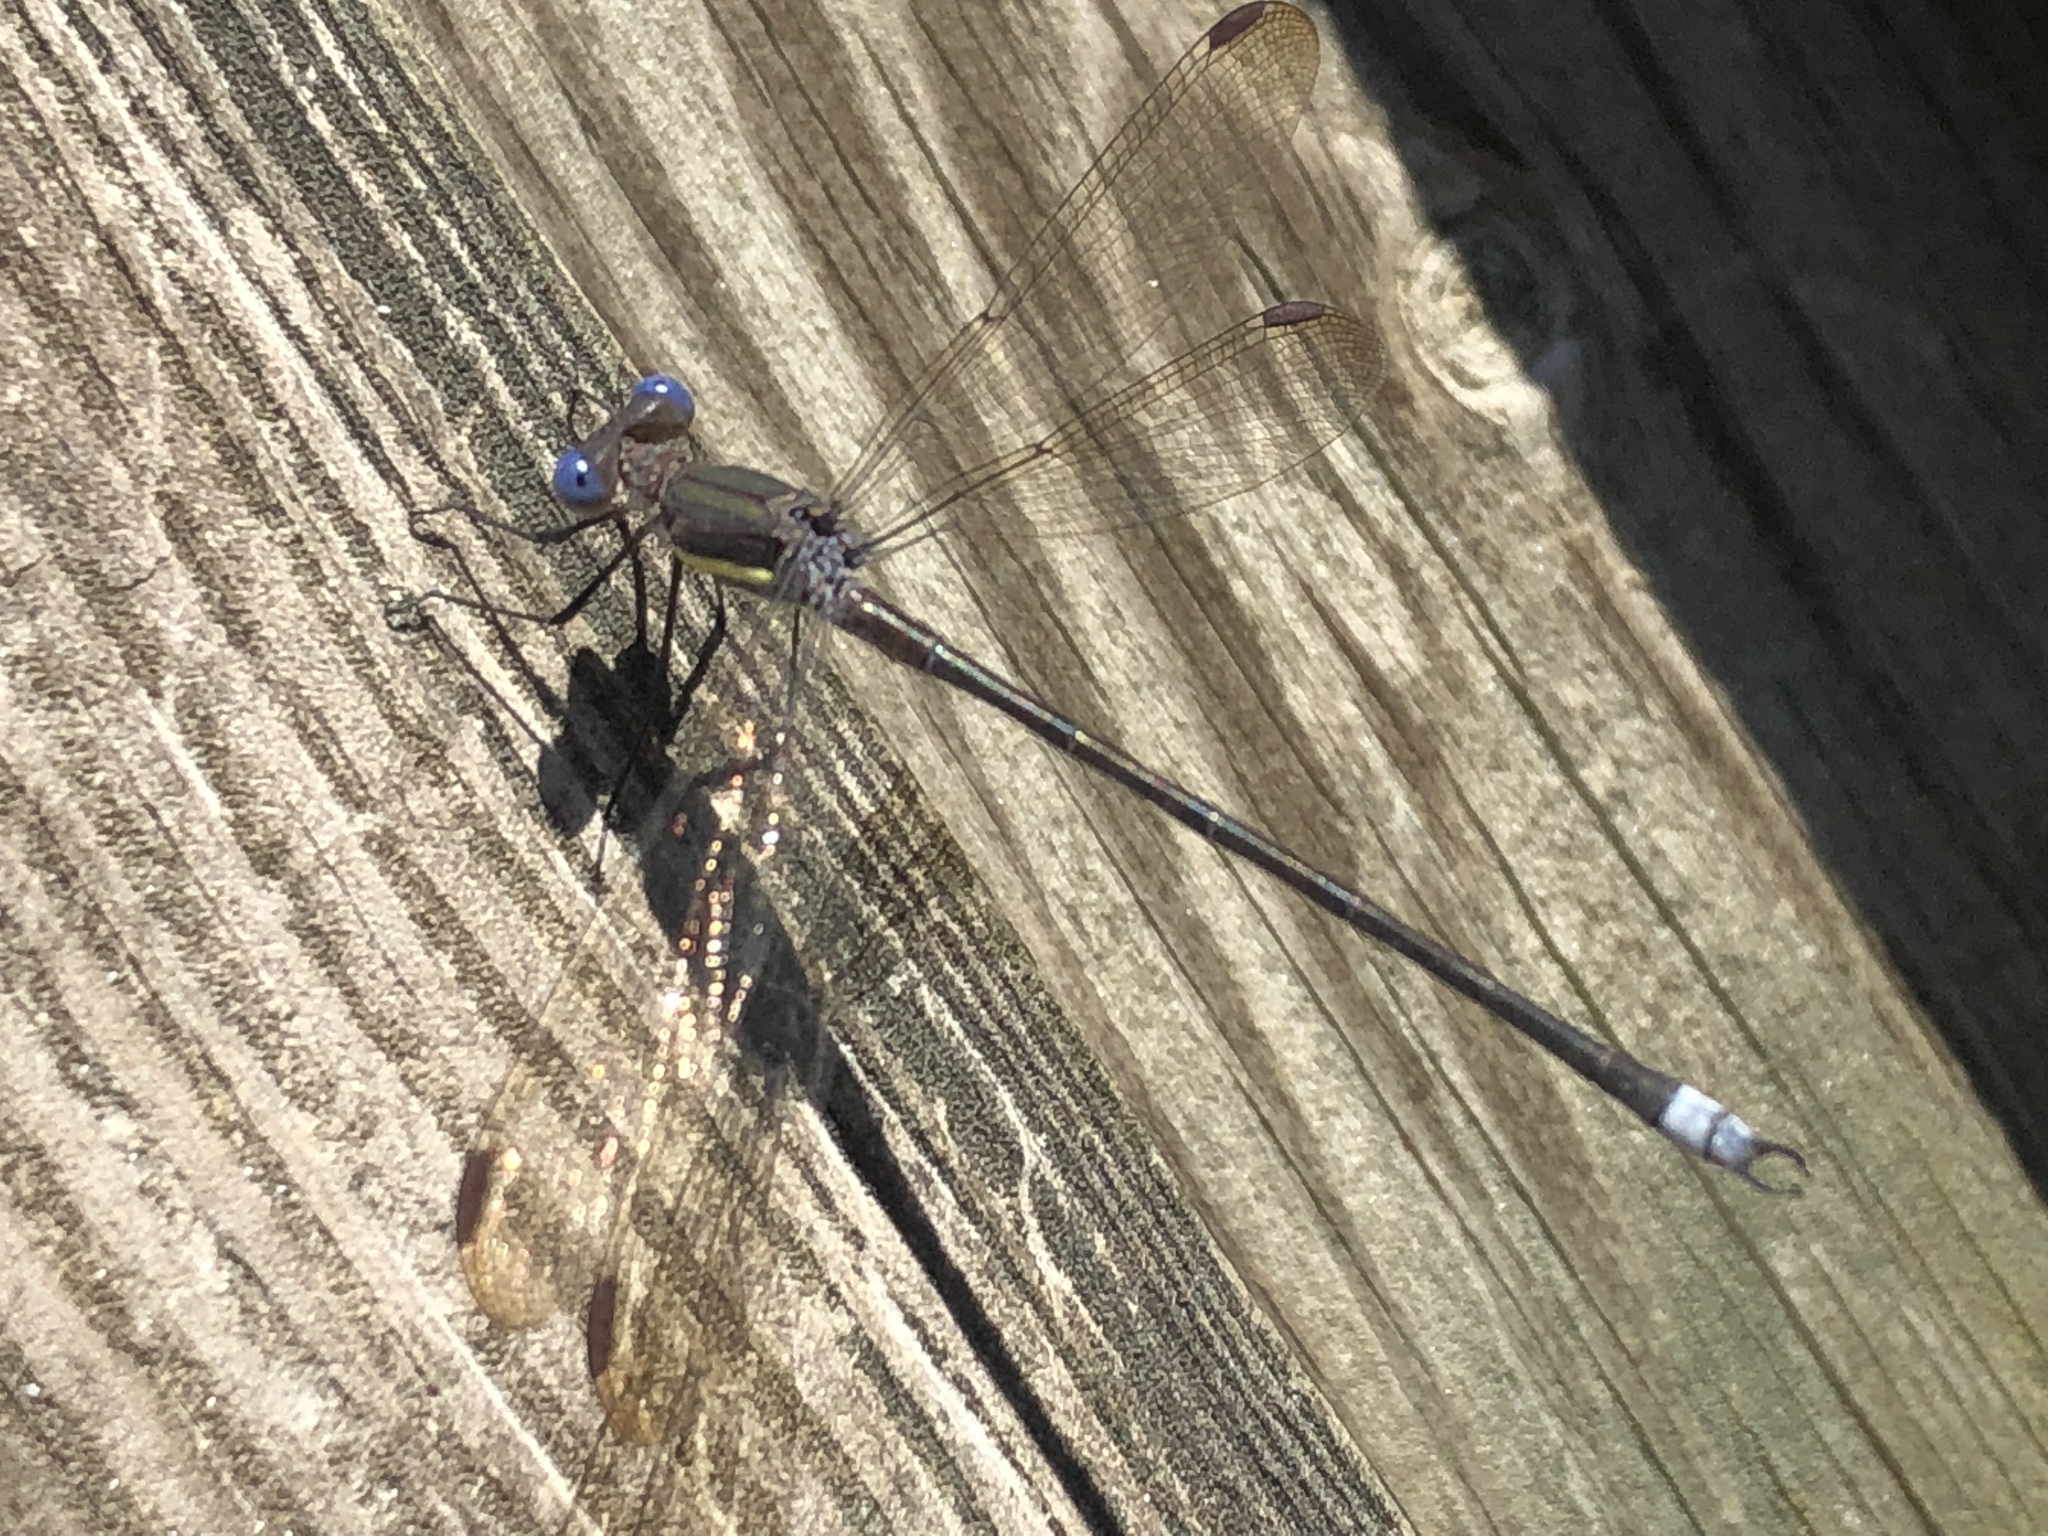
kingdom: Animalia
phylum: Arthropoda
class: Insecta
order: Odonata
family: Lestidae
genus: Archilestes
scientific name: Archilestes grandis
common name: Great spreadwing
